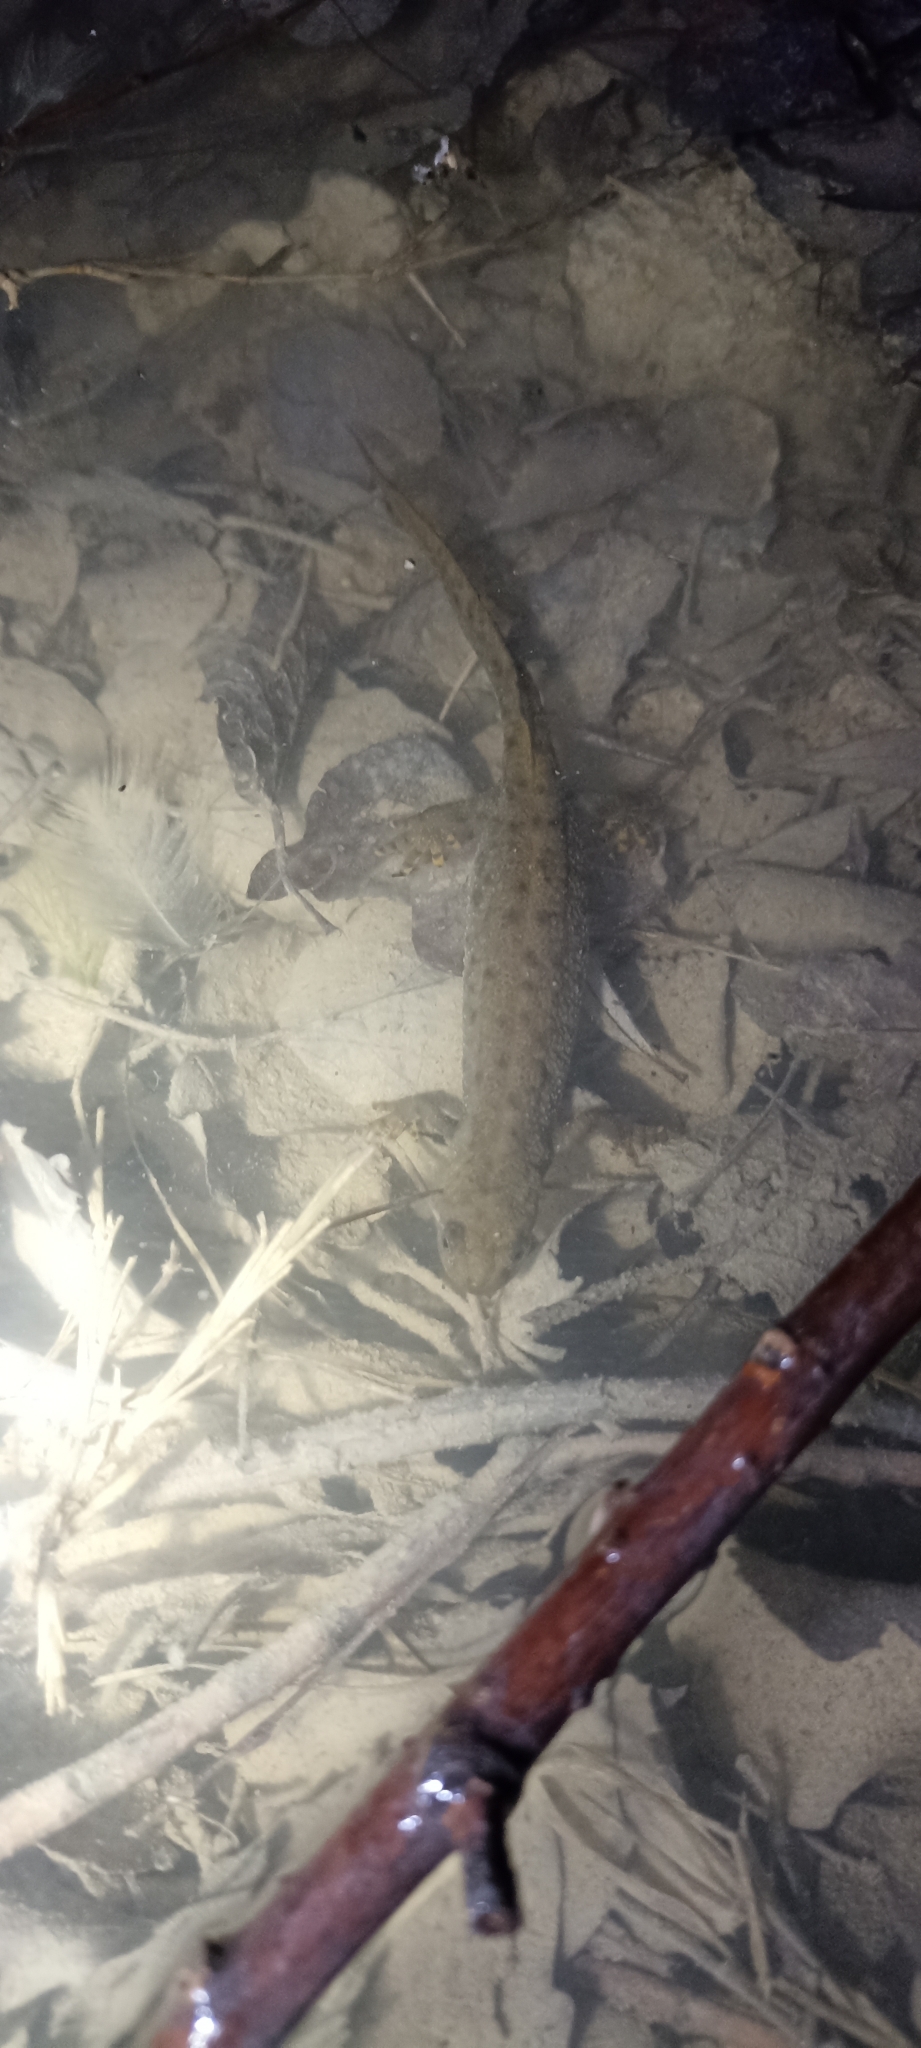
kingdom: Animalia
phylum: Chordata
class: Amphibia
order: Caudata
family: Salamandridae
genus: Triturus
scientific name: Triturus cristatus
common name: Crested newt
